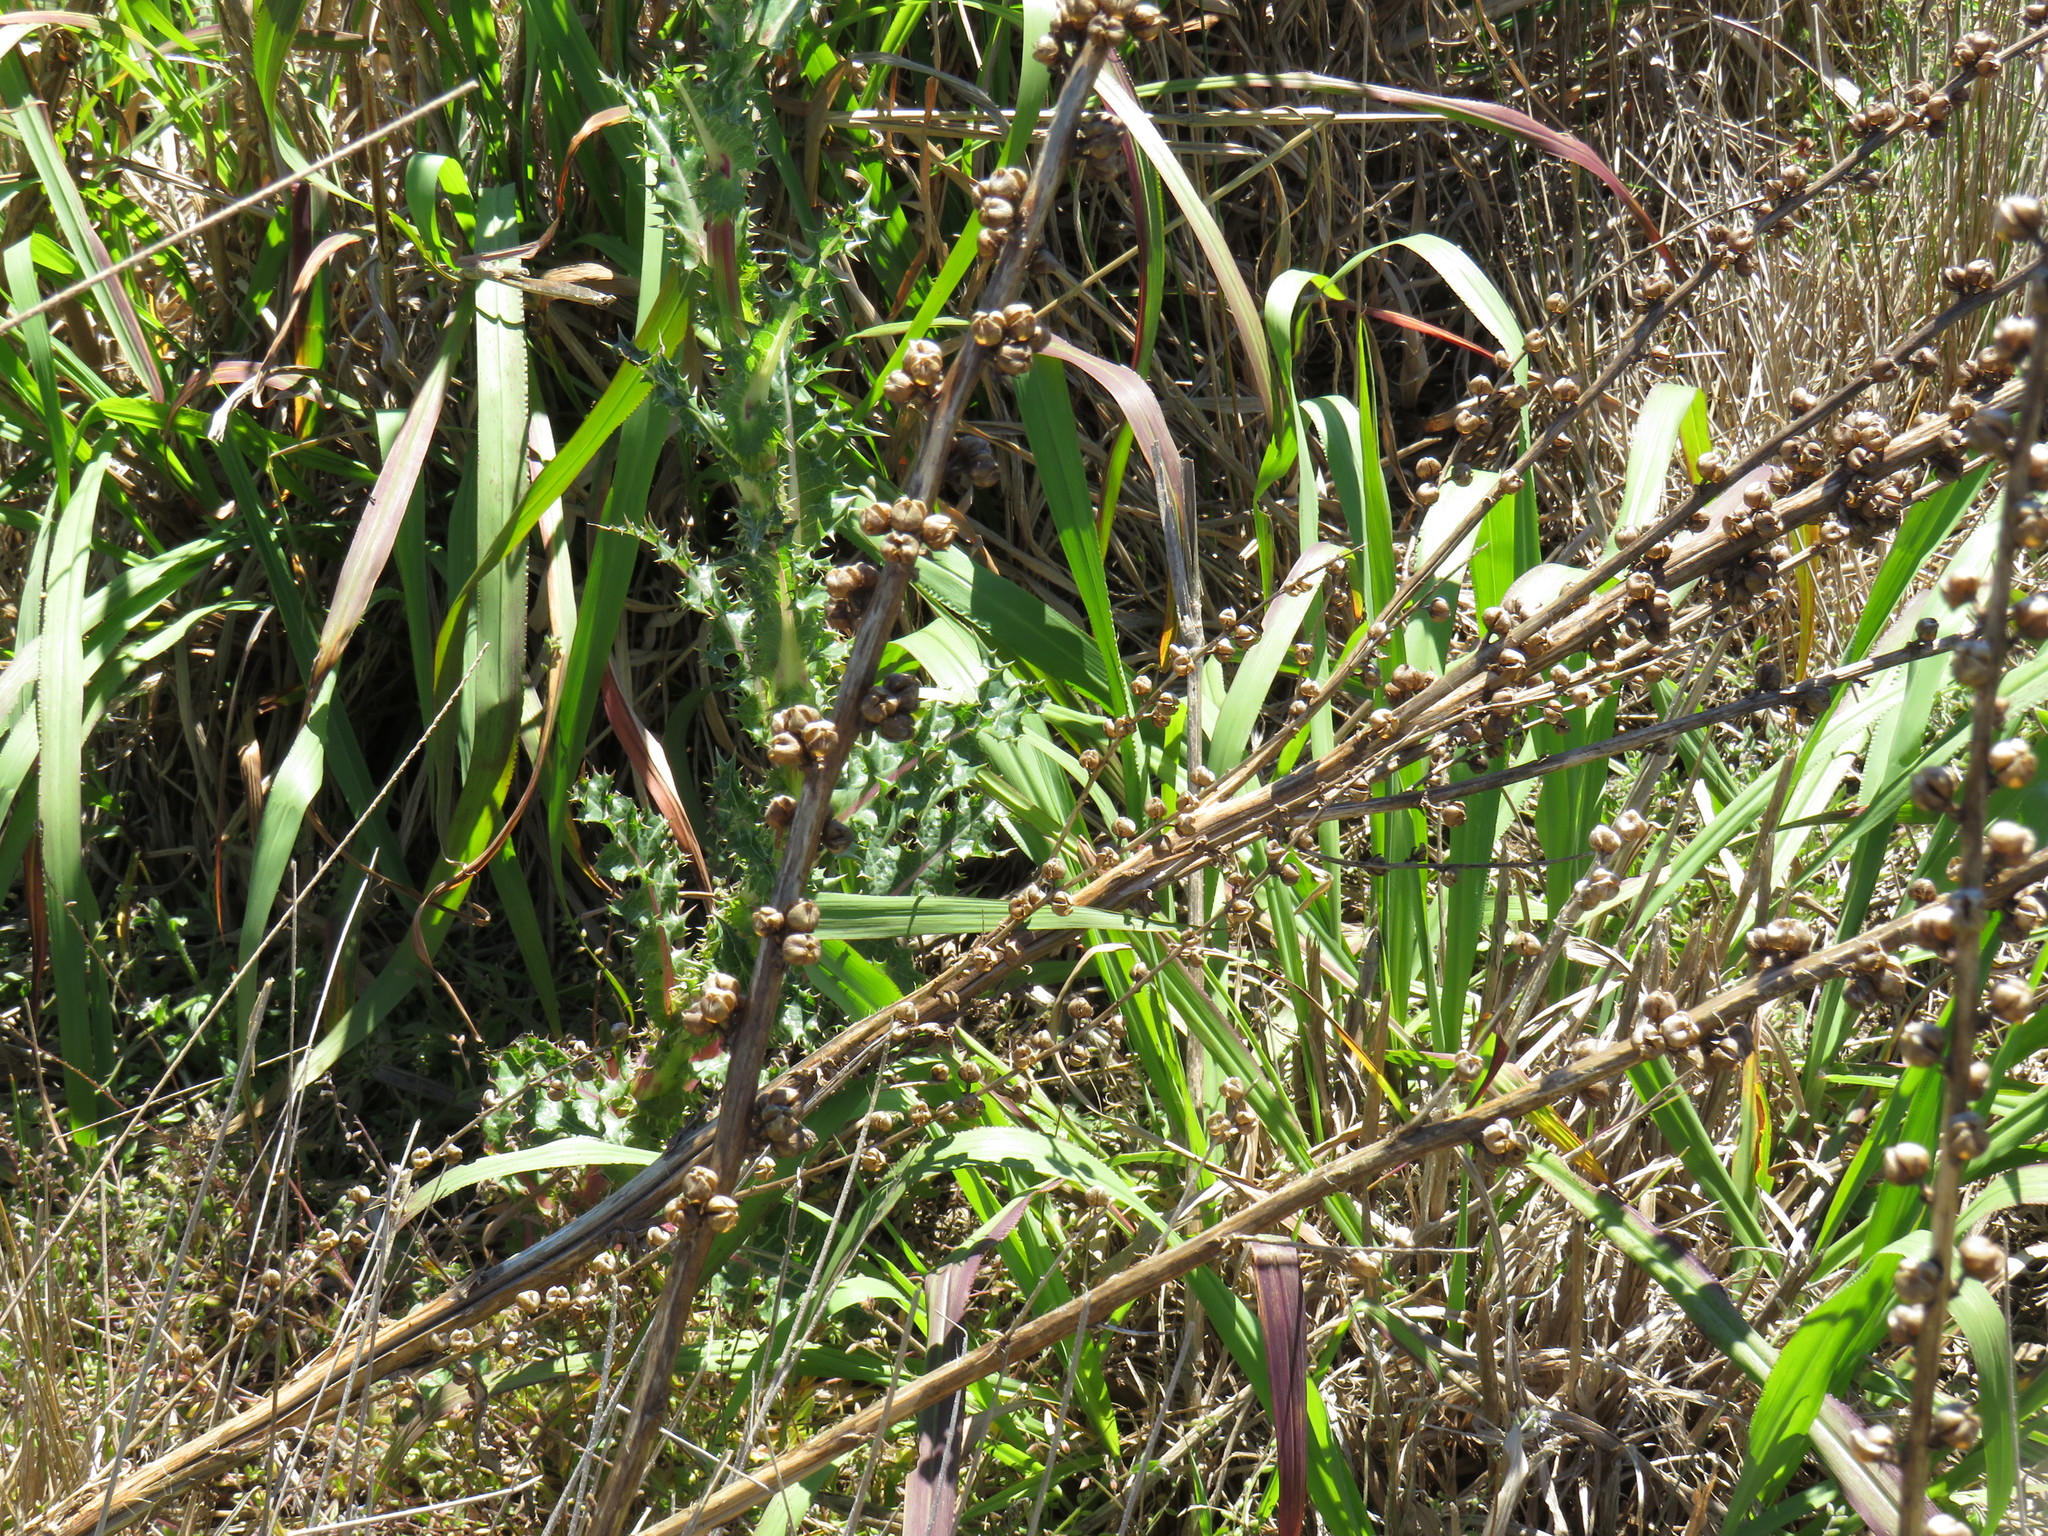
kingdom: Plantae
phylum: Tracheophyta
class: Magnoliopsida
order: Lamiales
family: Scrophulariaceae
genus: Verbascum
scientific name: Verbascum virgatum
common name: Twiggy mullein
